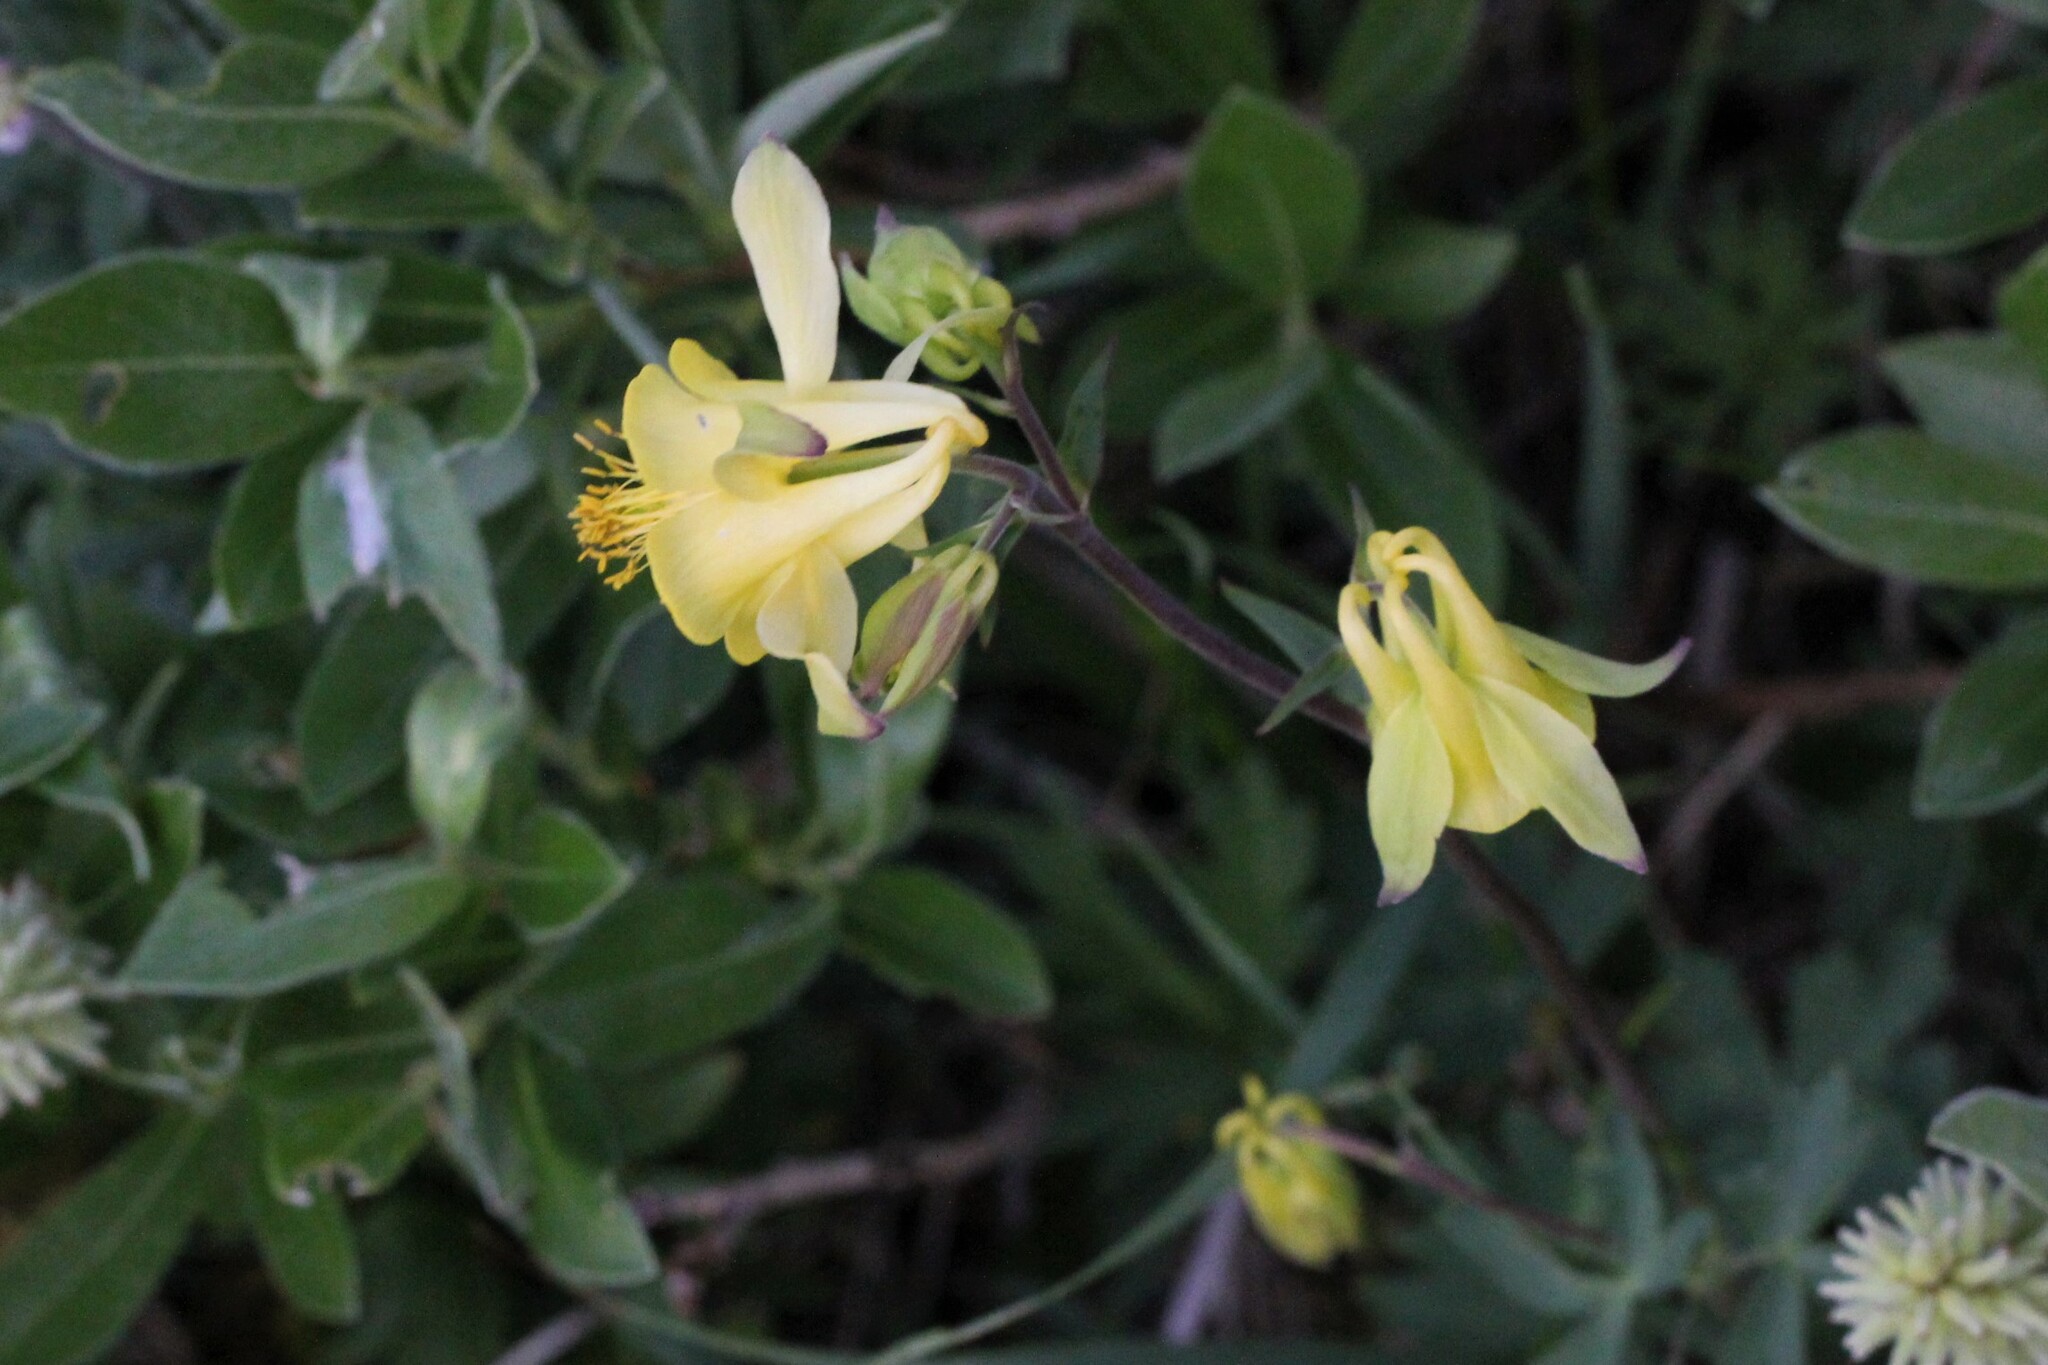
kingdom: Plantae
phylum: Tracheophyta
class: Magnoliopsida
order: Ranunculales
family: Ranunculaceae
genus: Aquilegia
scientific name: Aquilegia flavescens
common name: Yellow columbine
